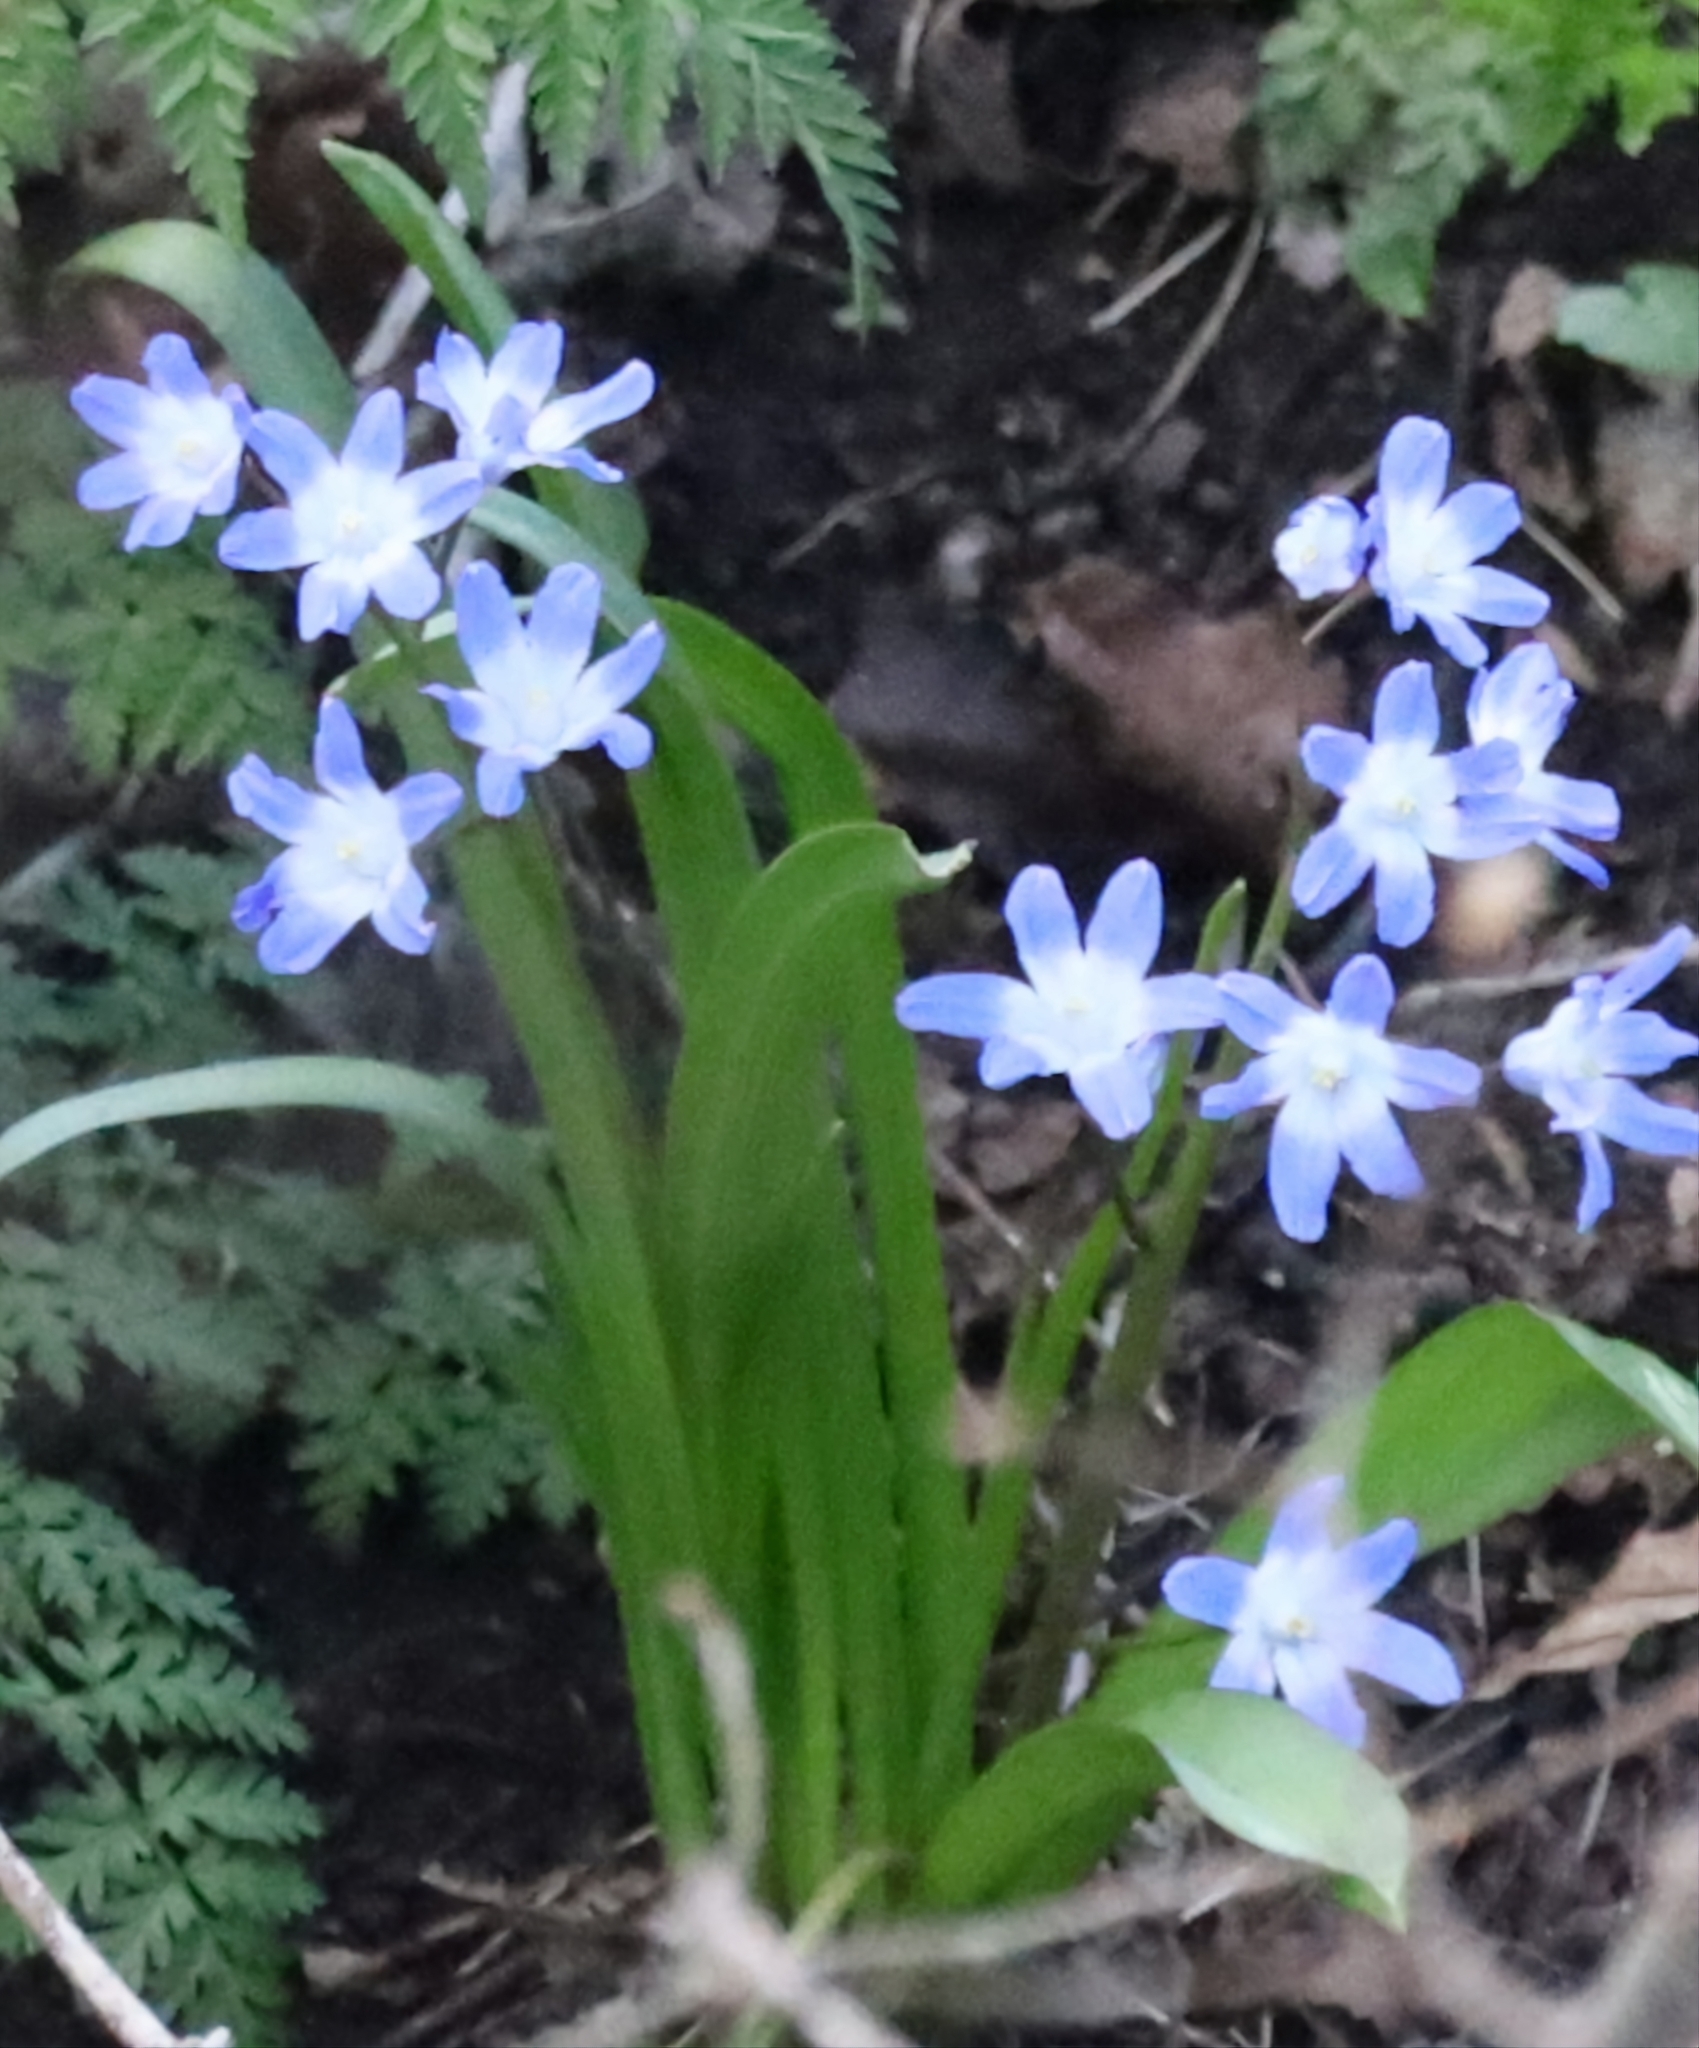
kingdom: Plantae
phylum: Tracheophyta
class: Liliopsida
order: Asparagales
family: Asparagaceae
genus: Scilla
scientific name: Scilla forbesii
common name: Glory-of-the-snow
